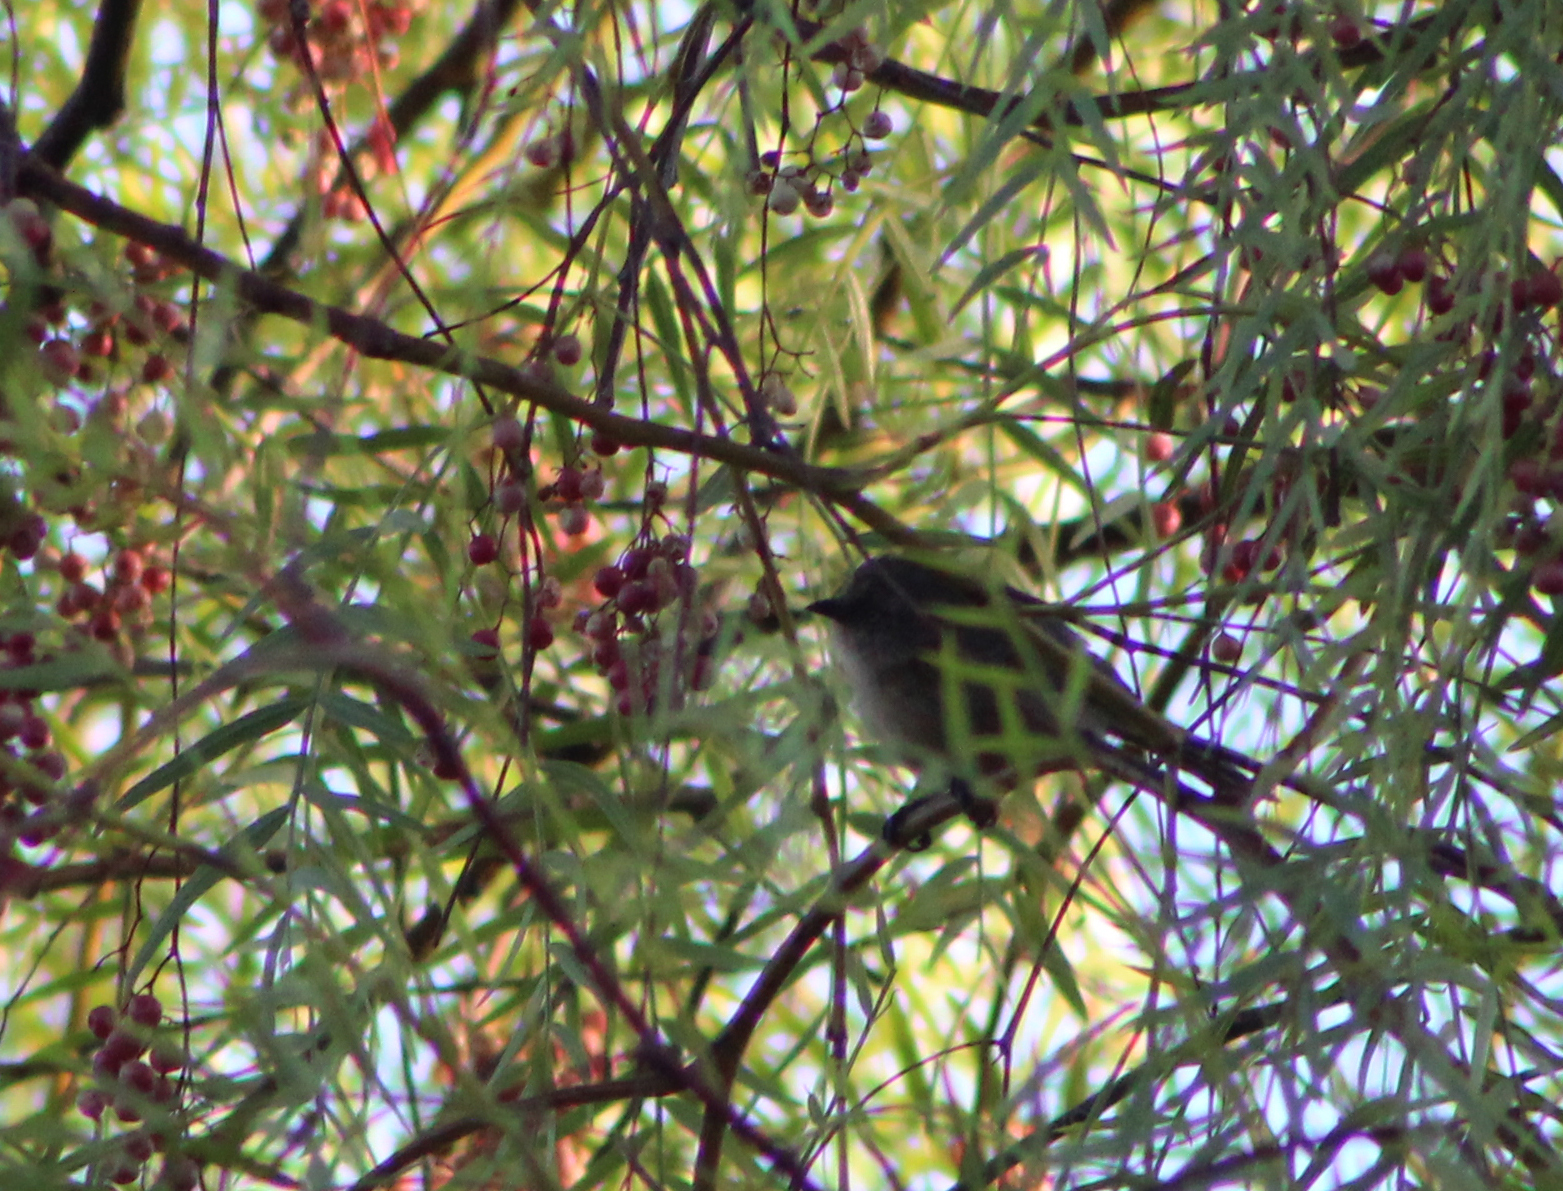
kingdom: Animalia
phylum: Chordata
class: Aves
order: Passeriformes
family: Aegithalidae
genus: Psaltriparus
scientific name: Psaltriparus minimus
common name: American bushtit
